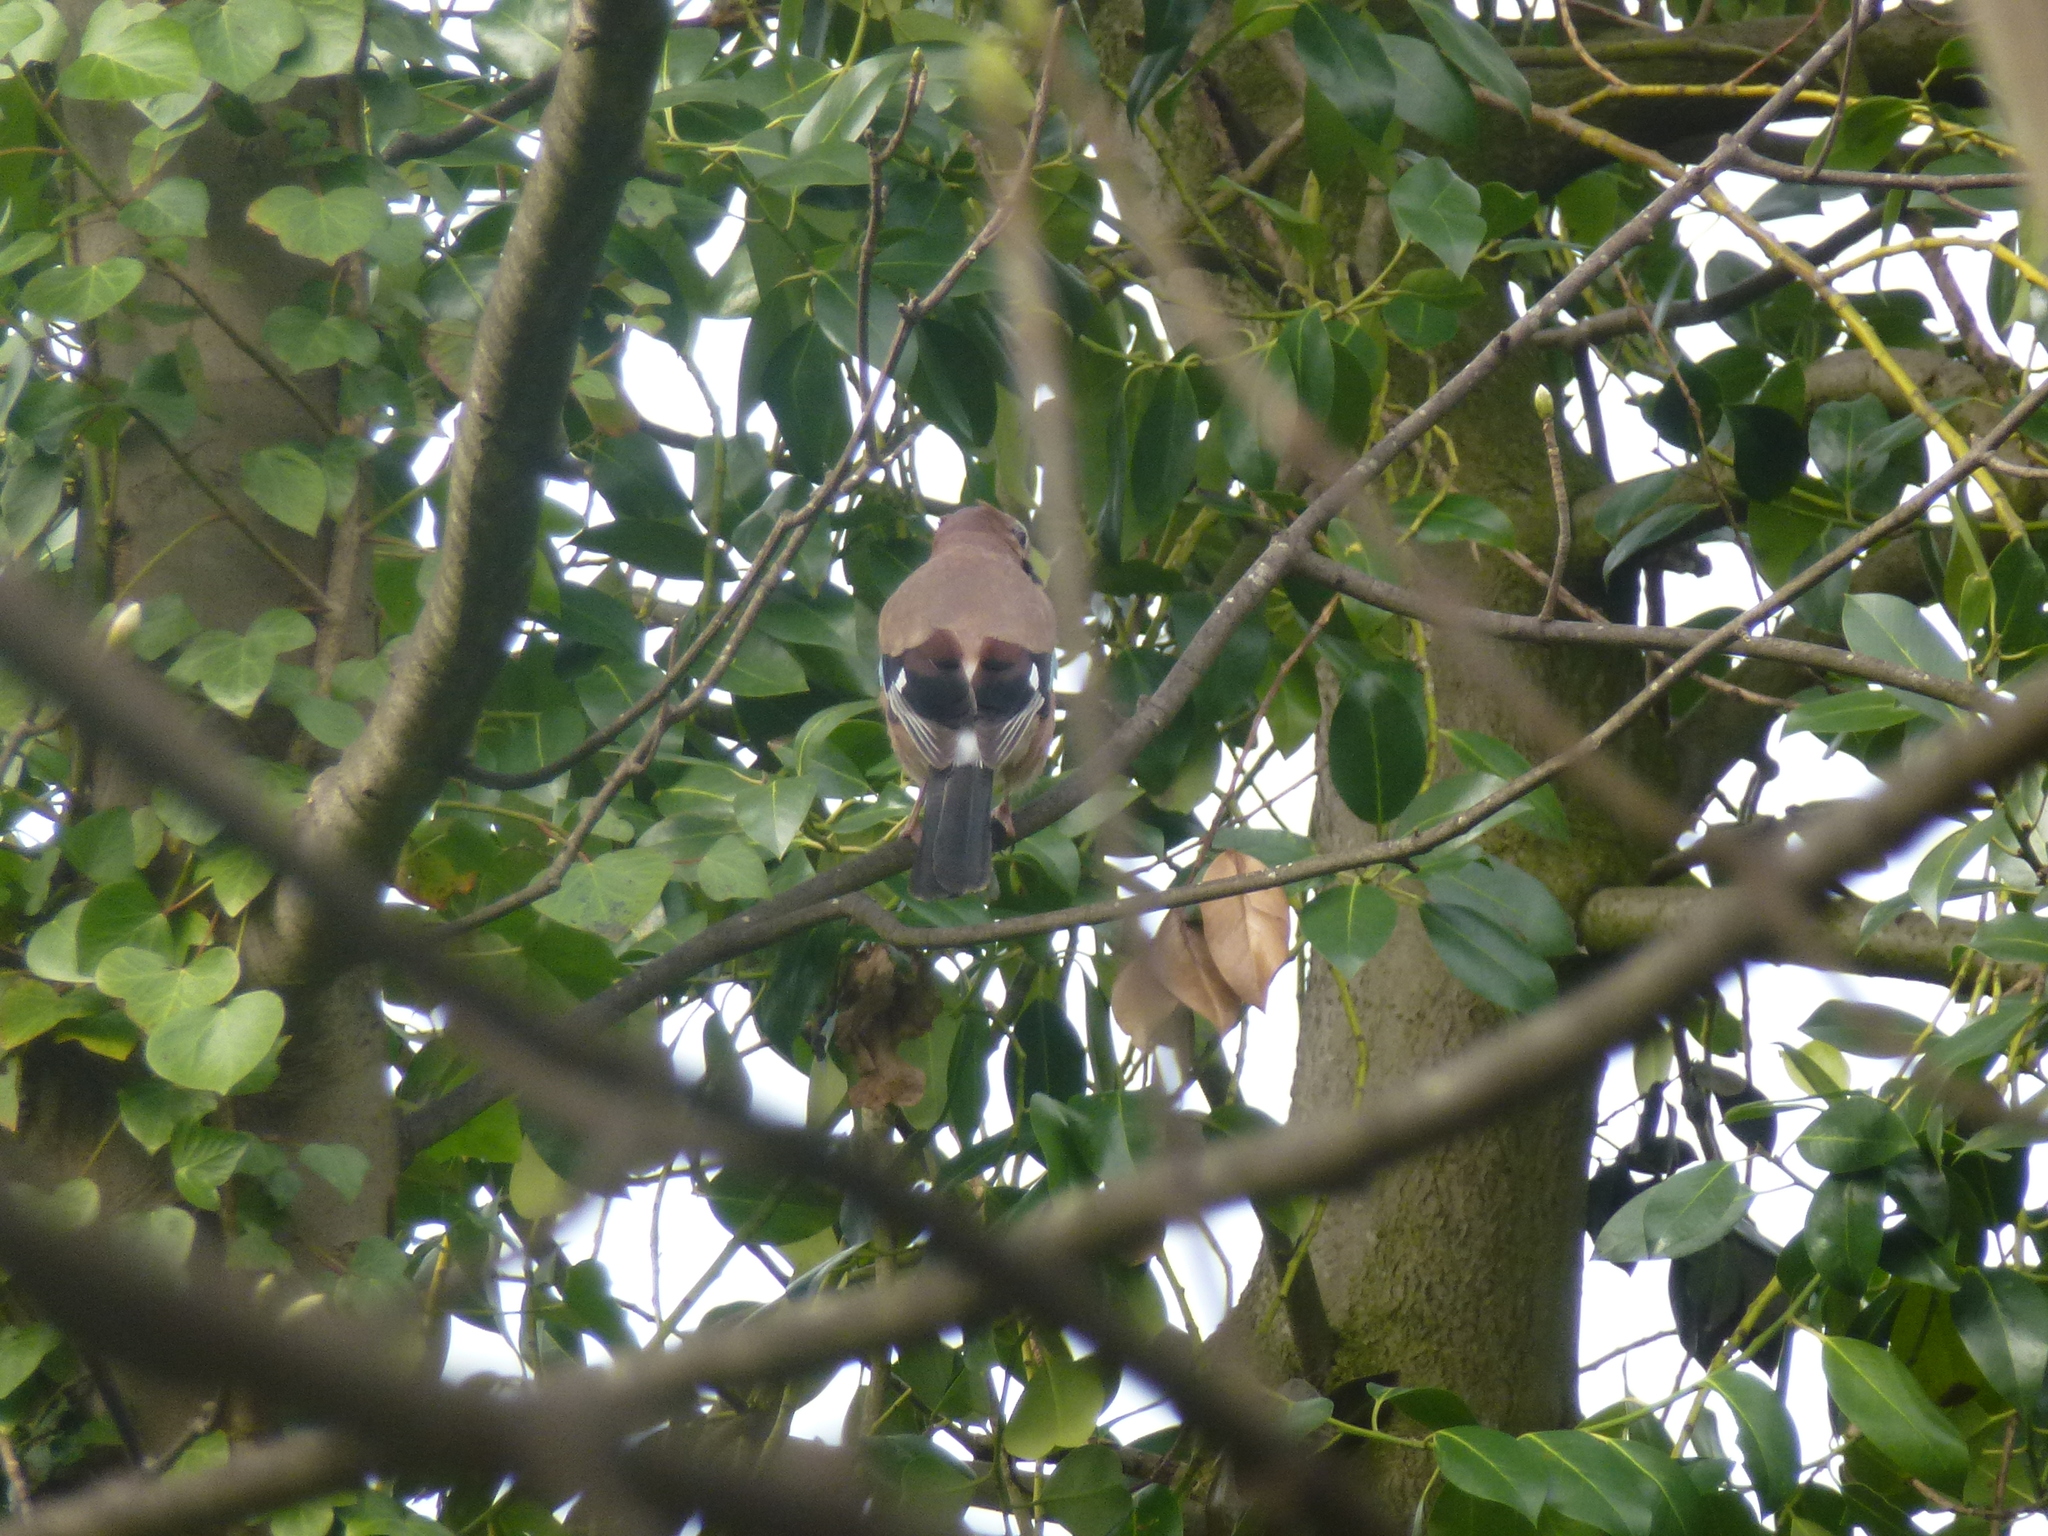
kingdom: Animalia
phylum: Chordata
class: Aves
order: Passeriformes
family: Corvidae
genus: Garrulus
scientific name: Garrulus glandarius
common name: Eurasian jay
